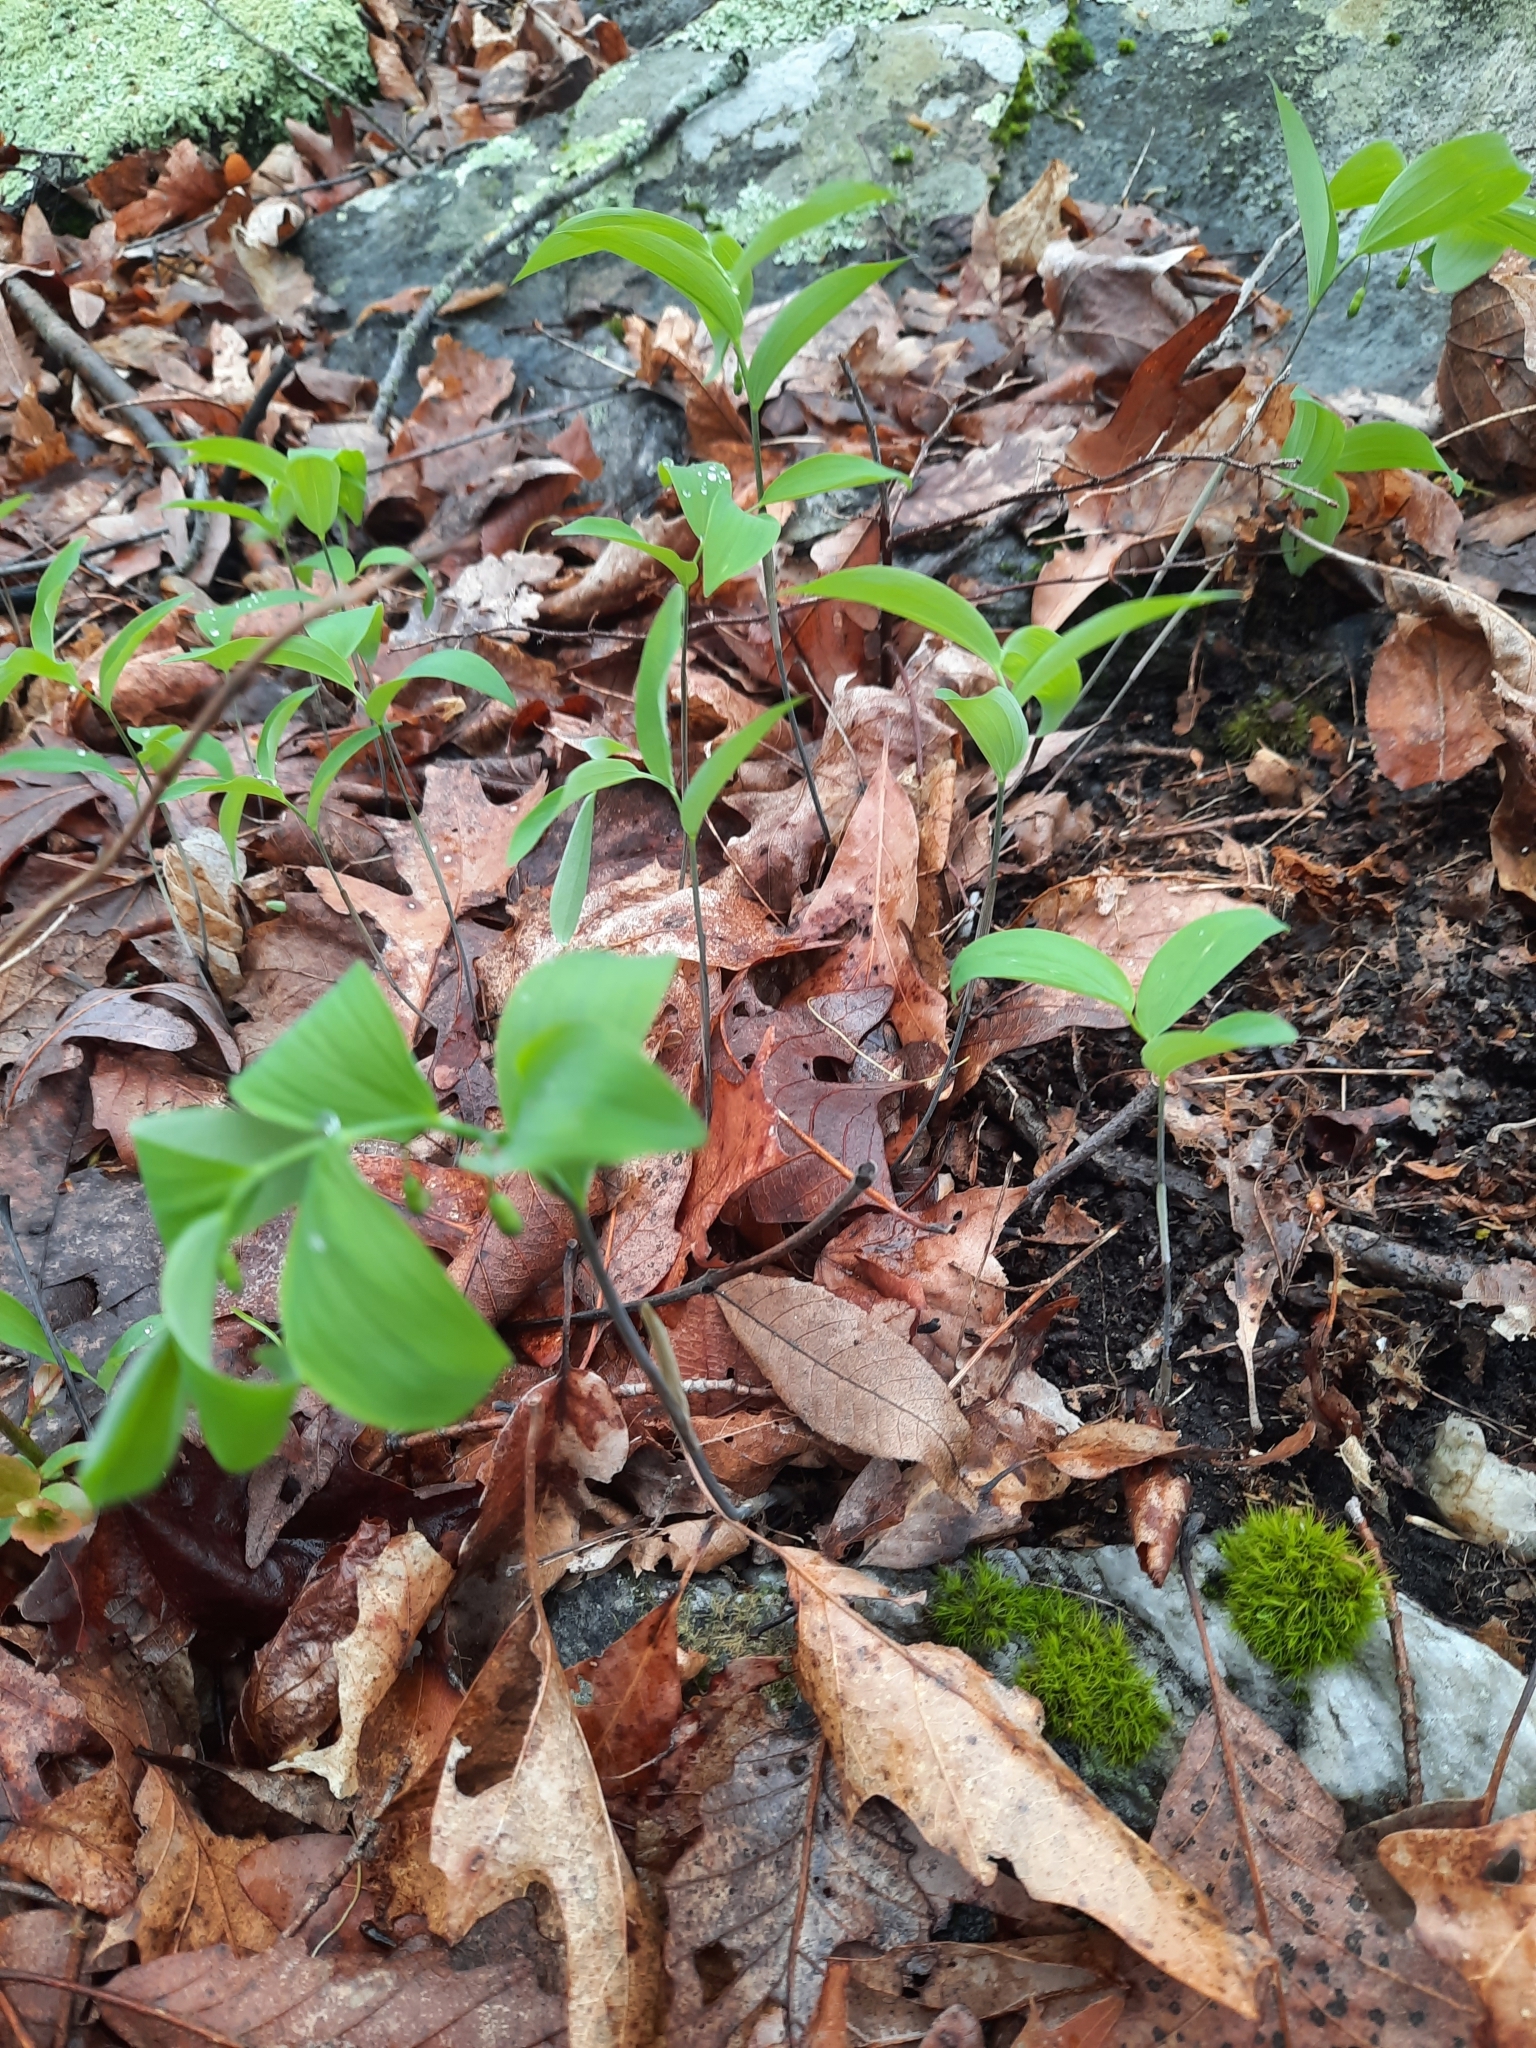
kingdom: Plantae
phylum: Tracheophyta
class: Liliopsida
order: Asparagales
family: Asparagaceae
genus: Polygonatum
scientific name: Polygonatum pubescens
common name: Downy solomon's seal
